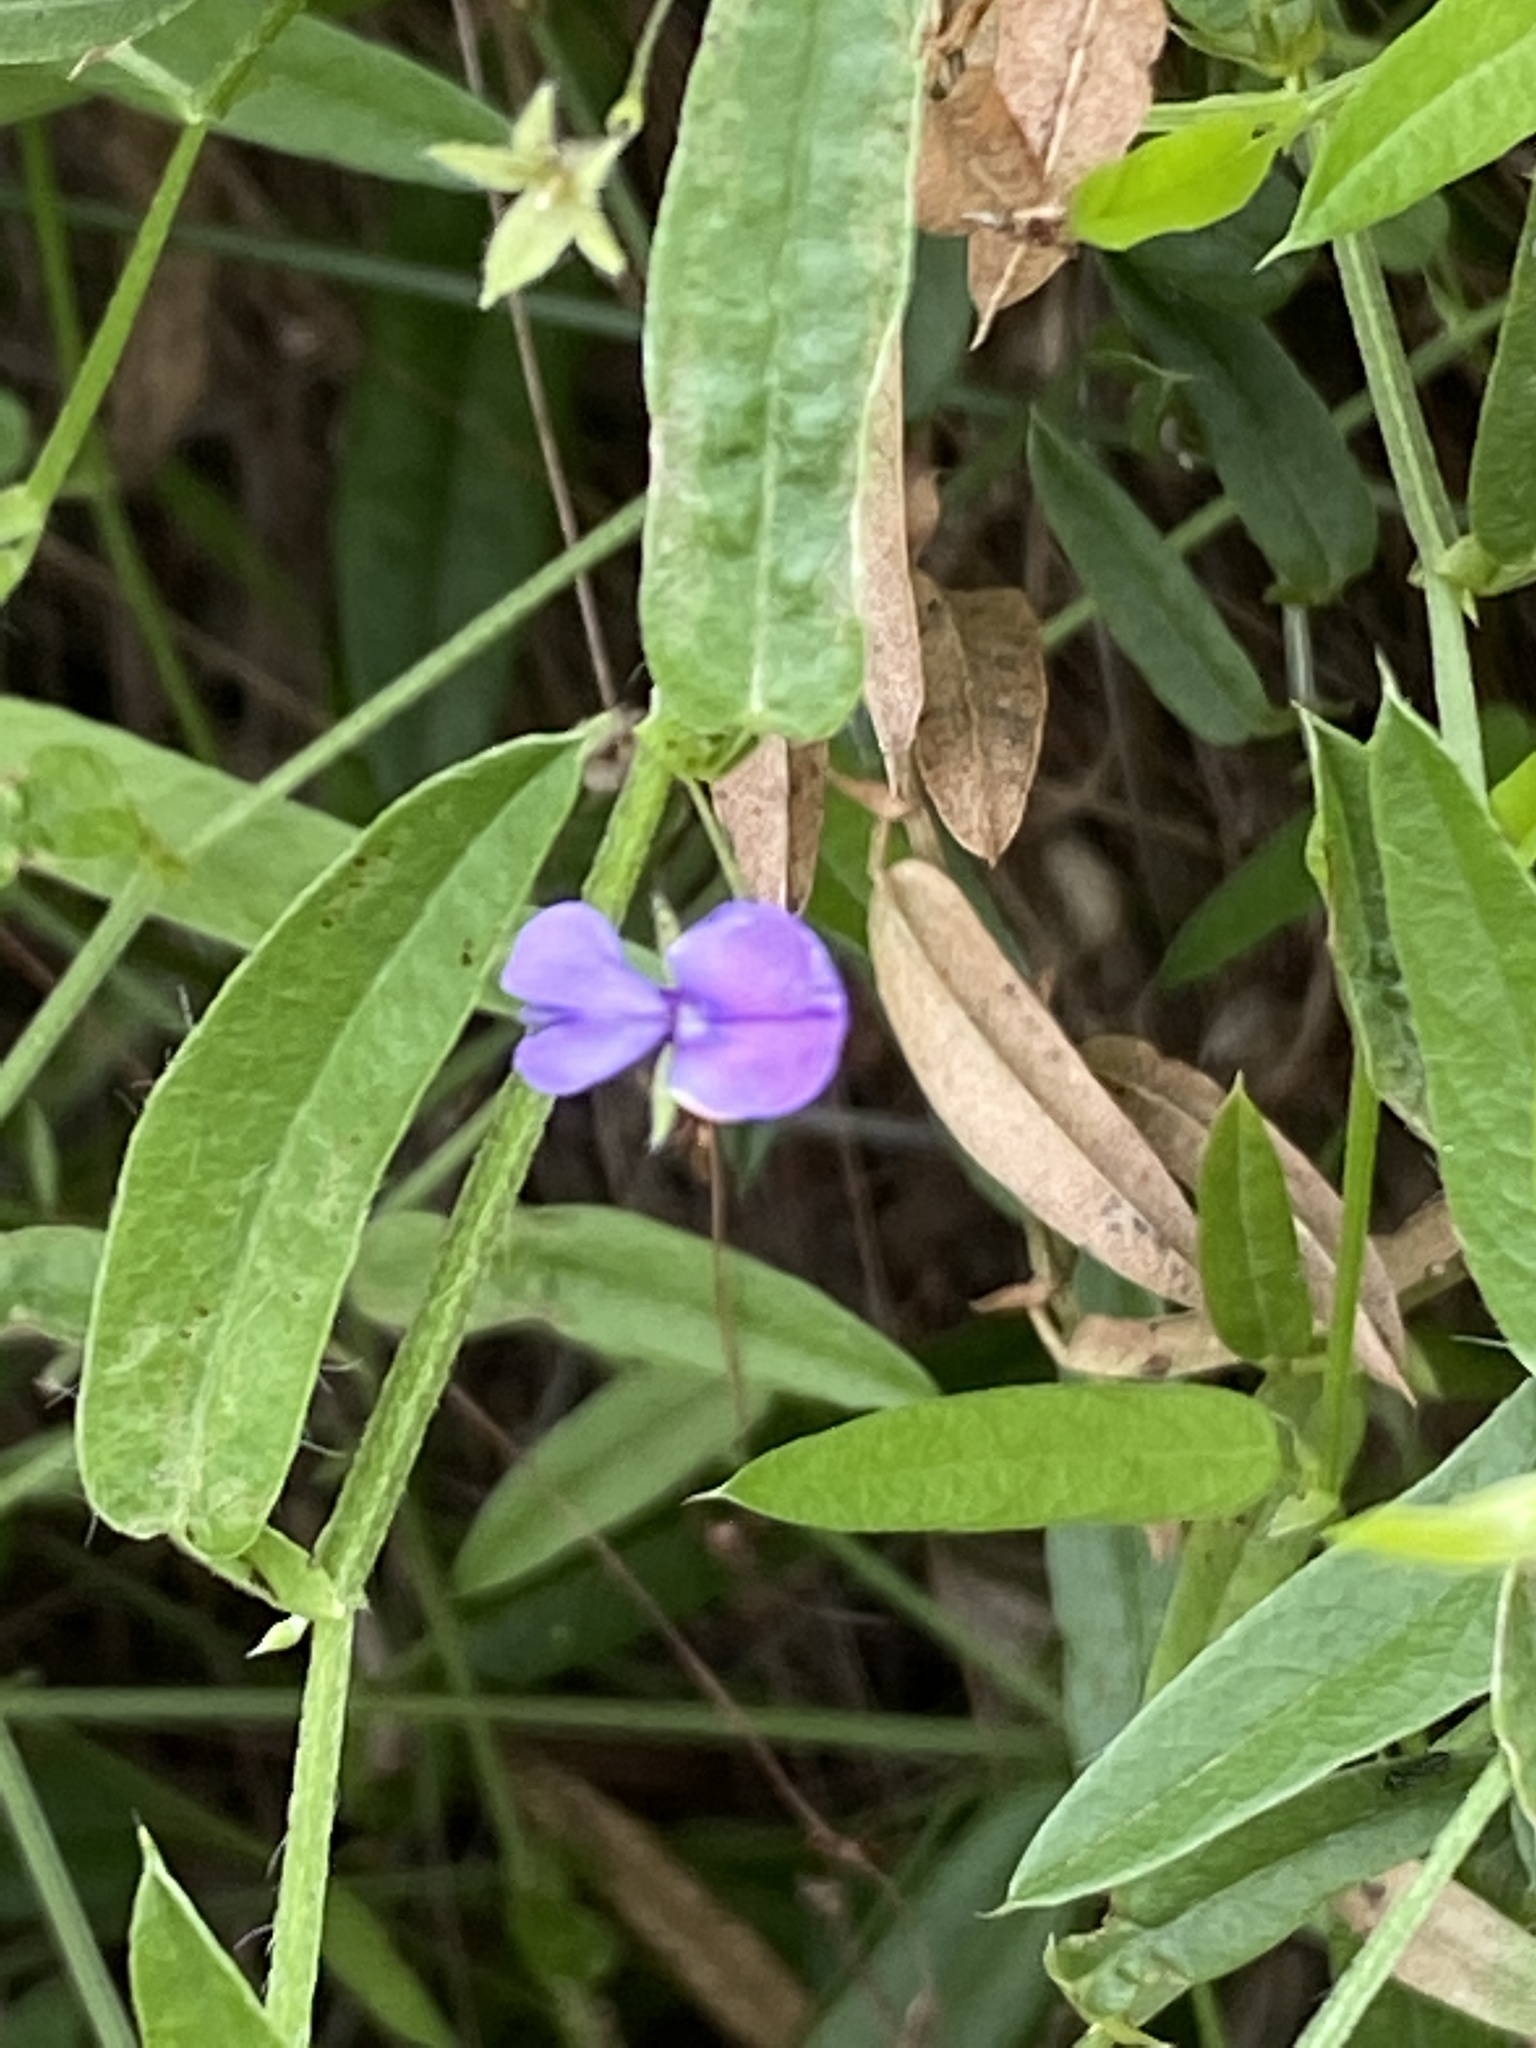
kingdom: Plantae
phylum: Tracheophyta
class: Magnoliopsida
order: Fabales
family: Fabaceae
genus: Psoralea
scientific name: Psoralea plauta
